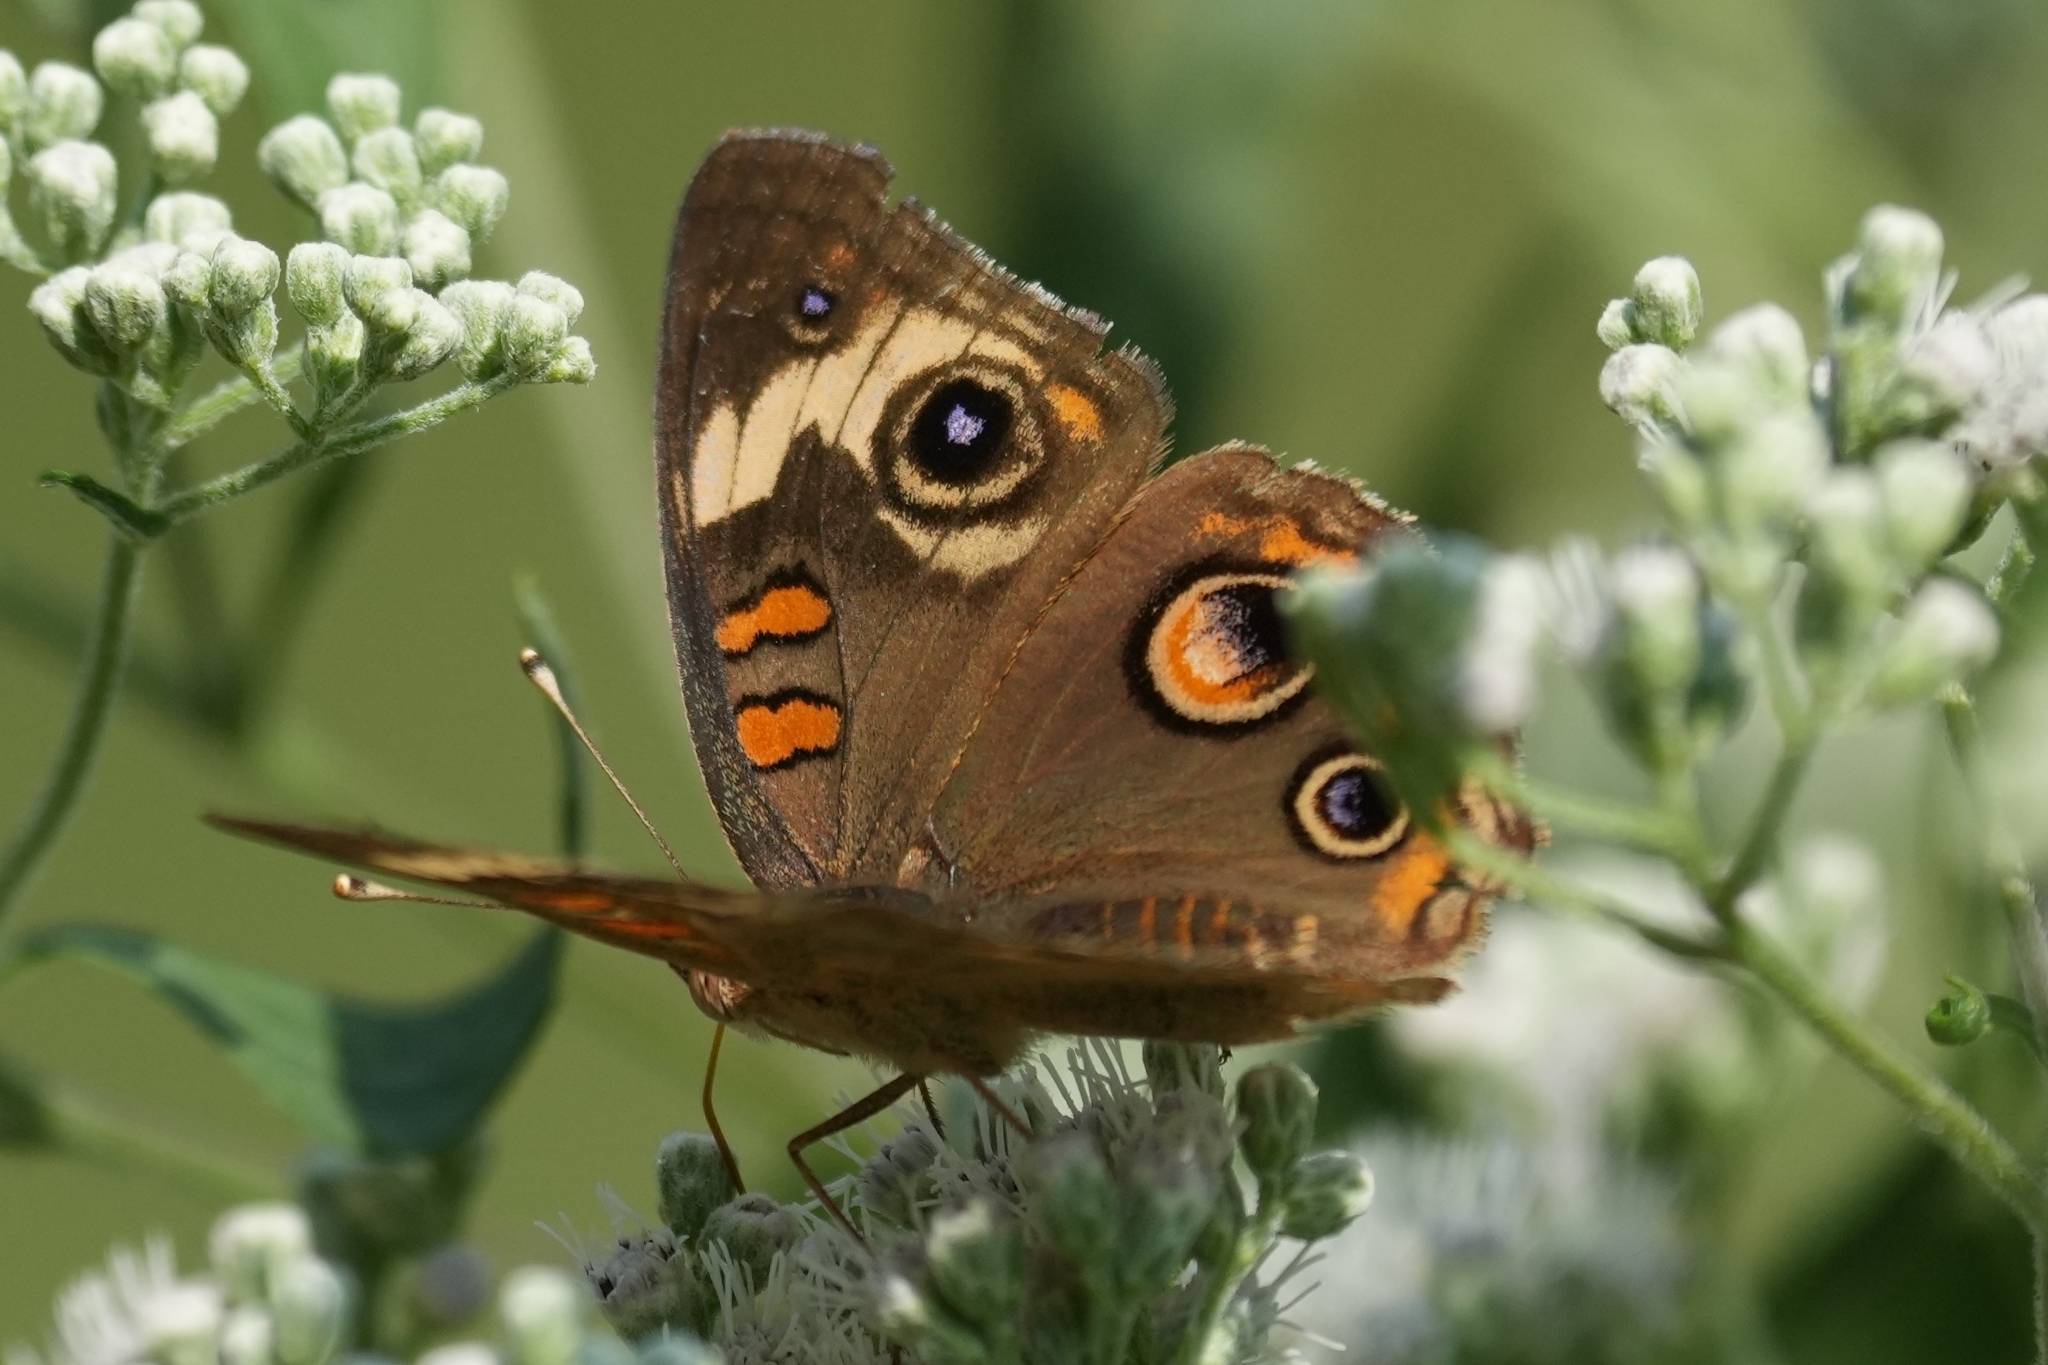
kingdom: Animalia
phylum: Arthropoda
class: Insecta
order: Lepidoptera
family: Nymphalidae
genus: Junonia
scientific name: Junonia coenia
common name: Common buckeye
